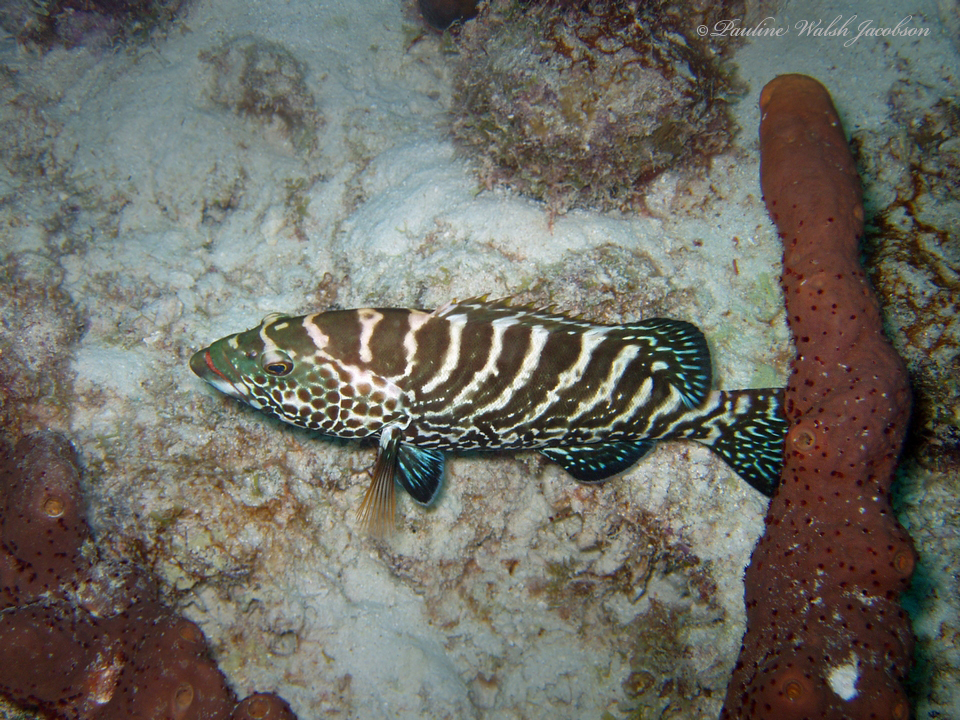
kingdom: Animalia
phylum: Chordata
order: Perciformes
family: Serranidae
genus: Mycteroperca
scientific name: Mycteroperca tigris
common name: Tiger grouper
